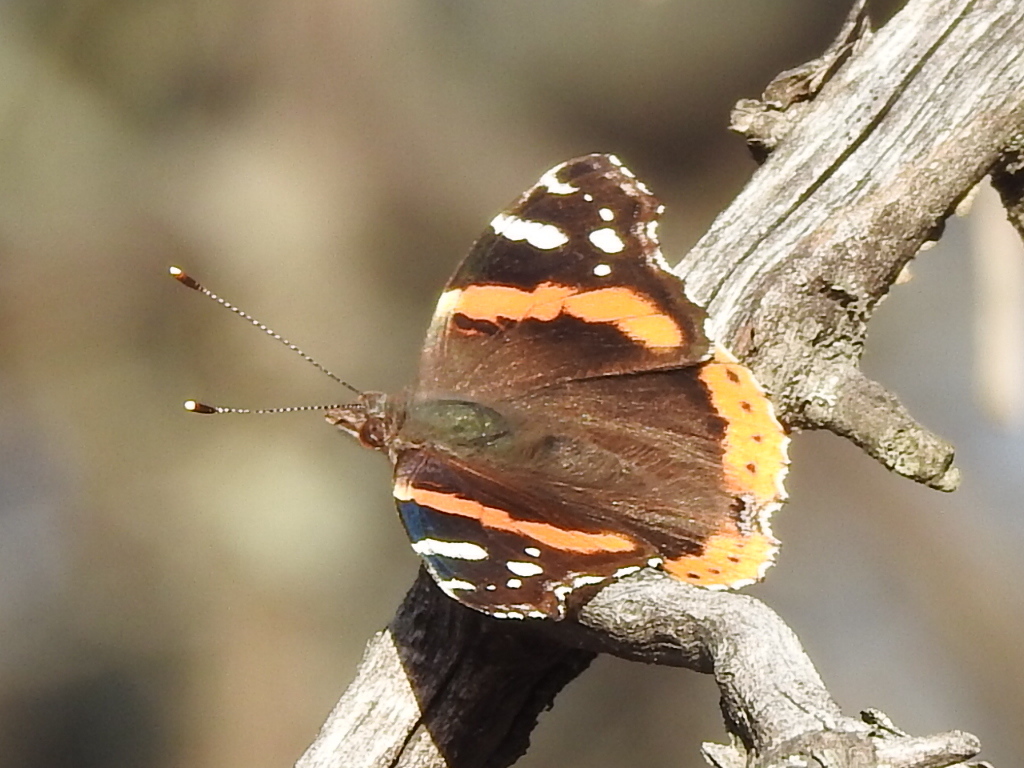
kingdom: Animalia
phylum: Arthropoda
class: Insecta
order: Lepidoptera
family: Nymphalidae
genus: Vanessa
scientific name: Vanessa atalanta
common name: Red admiral
